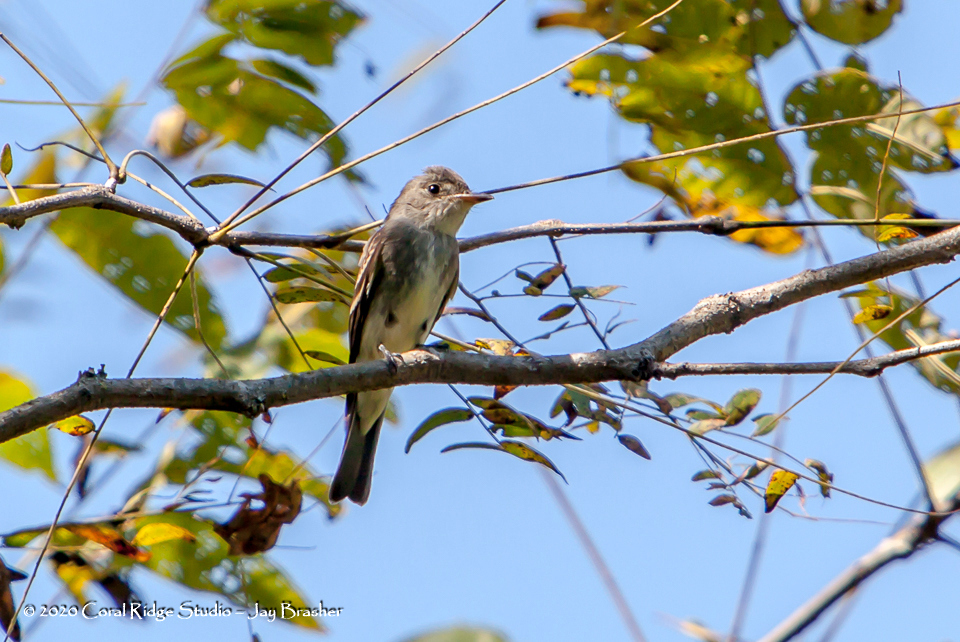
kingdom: Animalia
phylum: Chordata
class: Aves
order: Passeriformes
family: Tyrannidae
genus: Contopus
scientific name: Contopus virens
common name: Eastern wood-pewee
